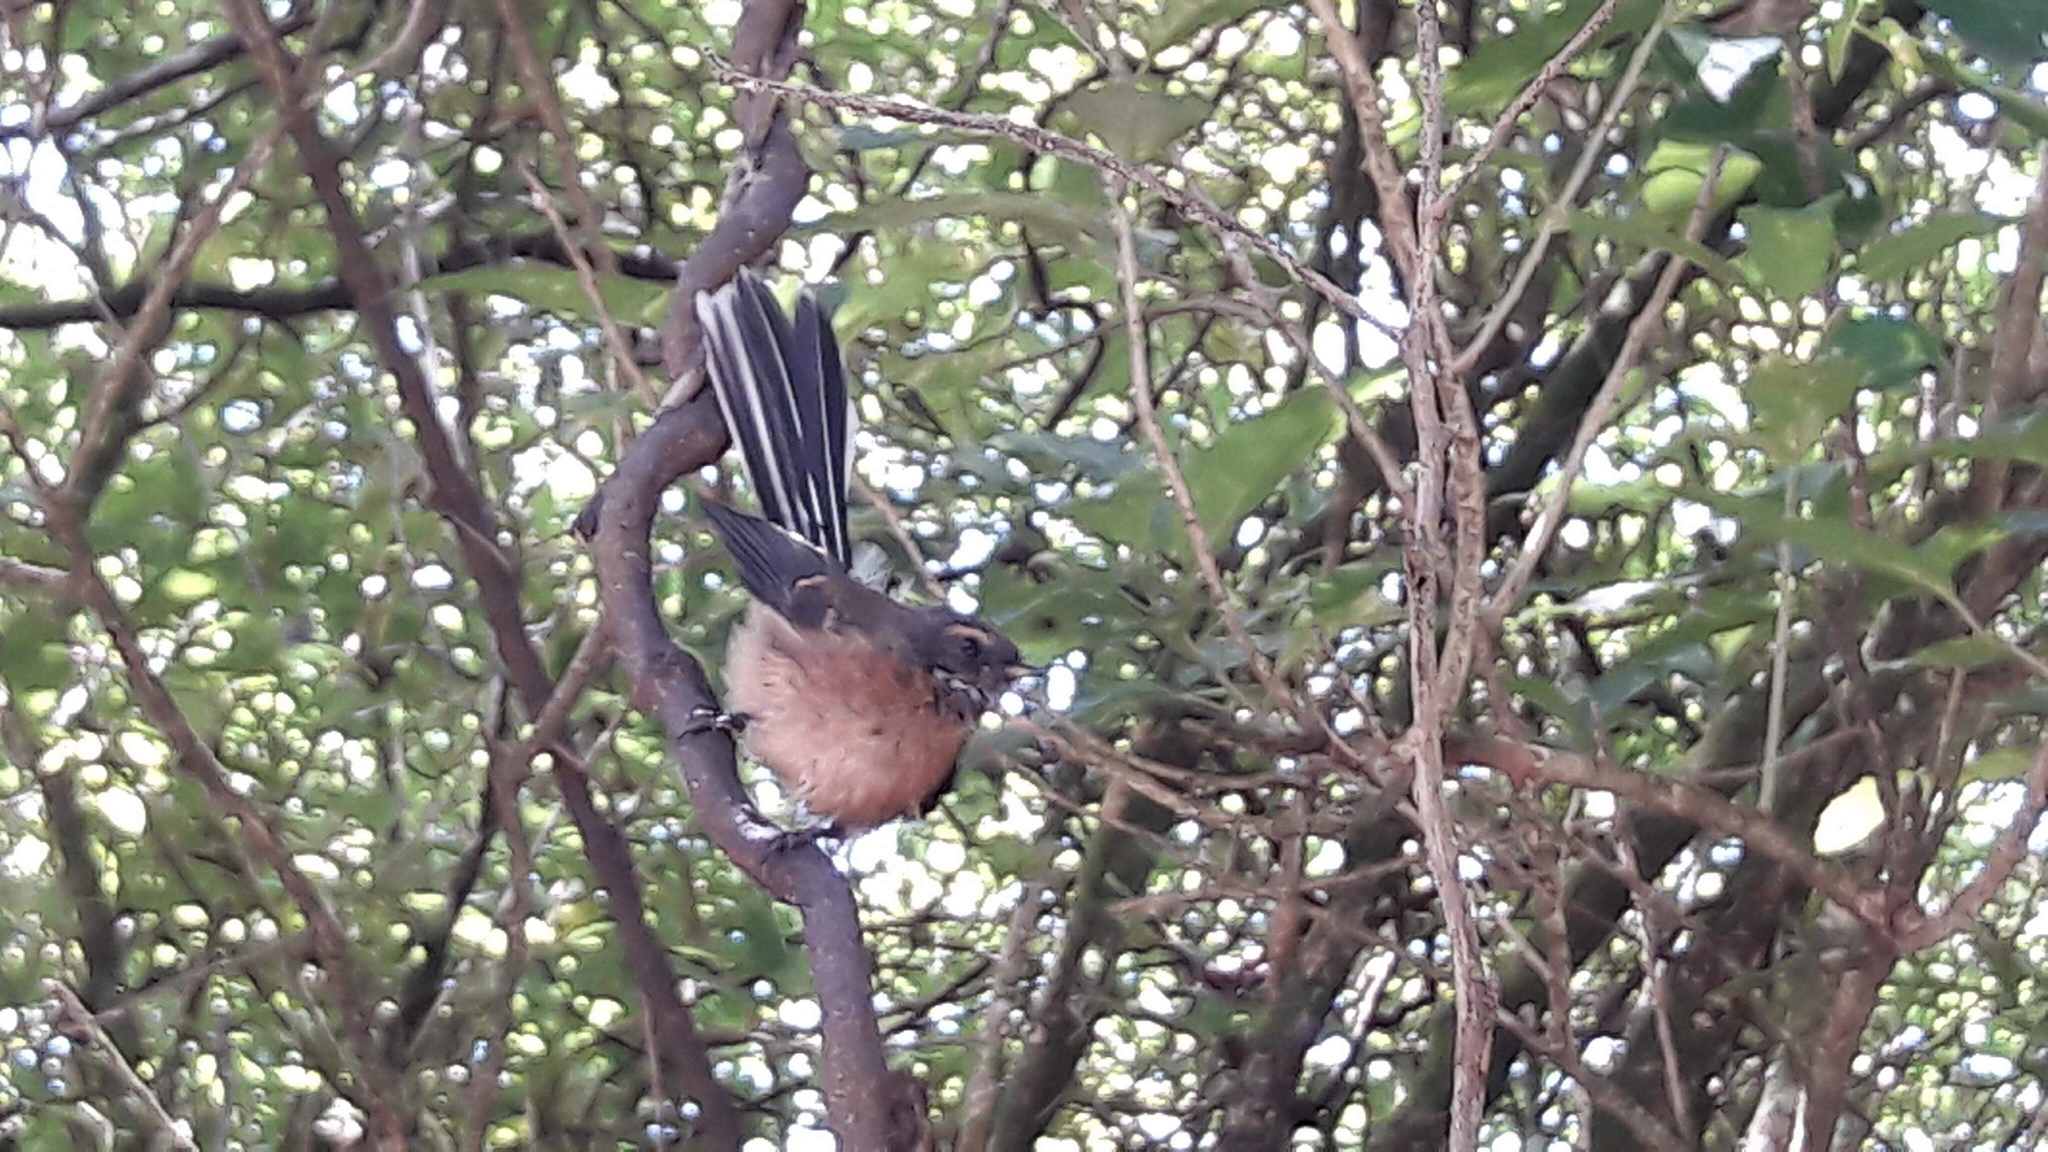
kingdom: Animalia
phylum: Chordata
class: Aves
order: Passeriformes
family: Rhipiduridae
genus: Rhipidura
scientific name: Rhipidura fuliginosa
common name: New zealand fantail
